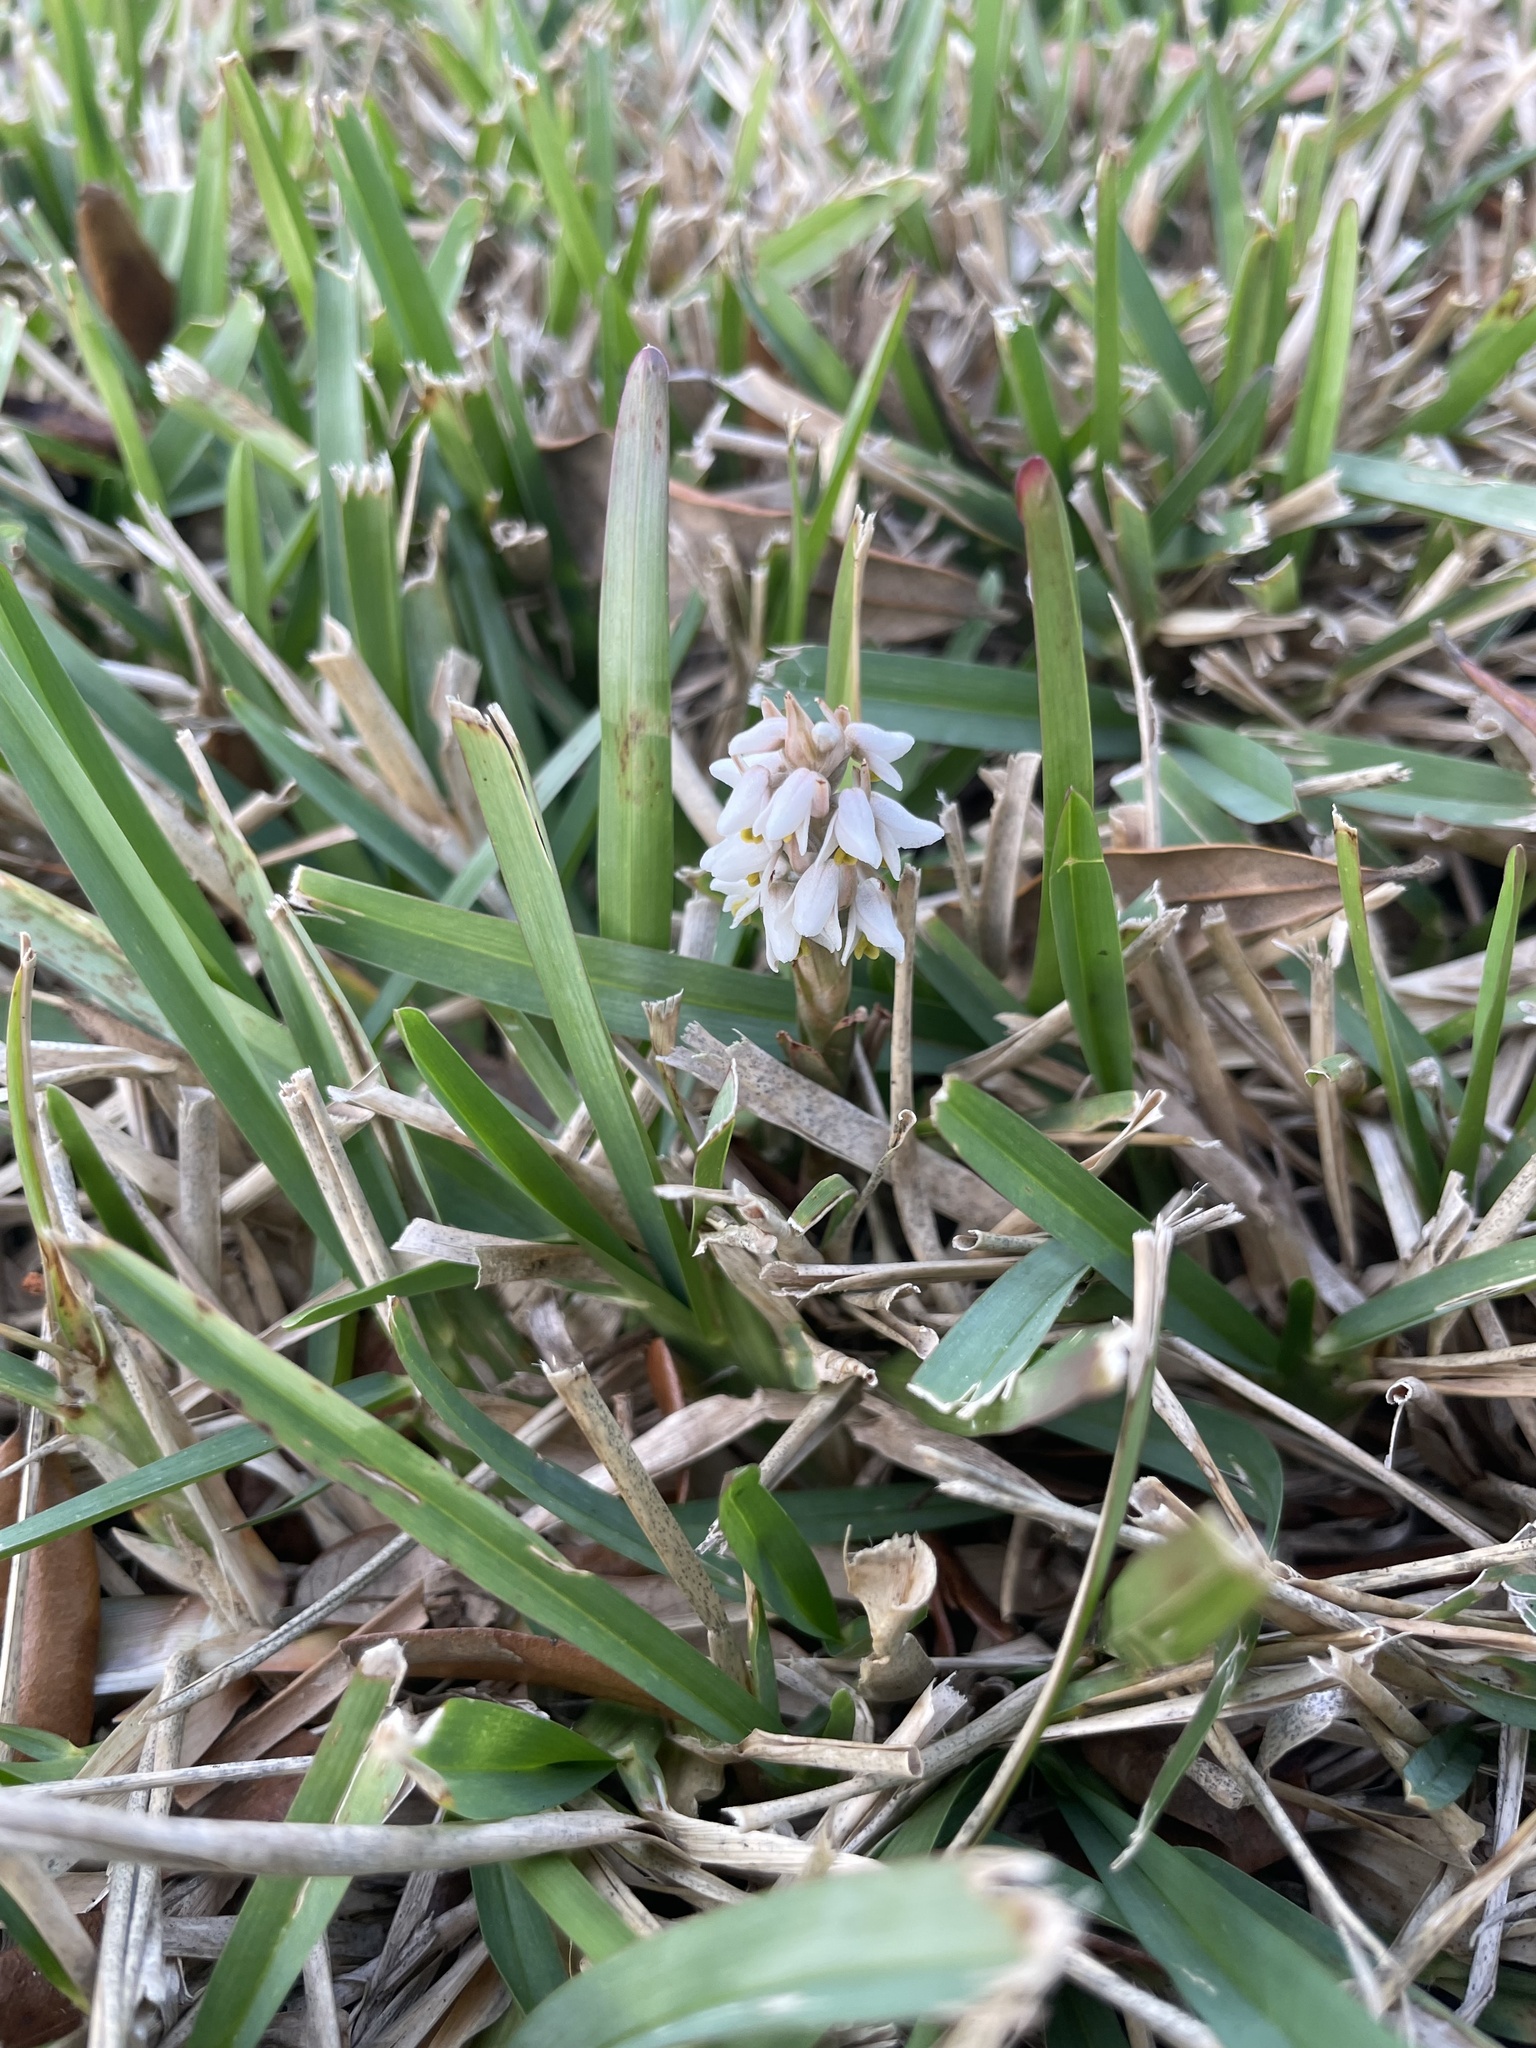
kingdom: Plantae
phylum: Tracheophyta
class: Liliopsida
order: Asparagales
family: Orchidaceae
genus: Zeuxine
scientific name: Zeuxine strateumatica
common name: Soldier's orchid
